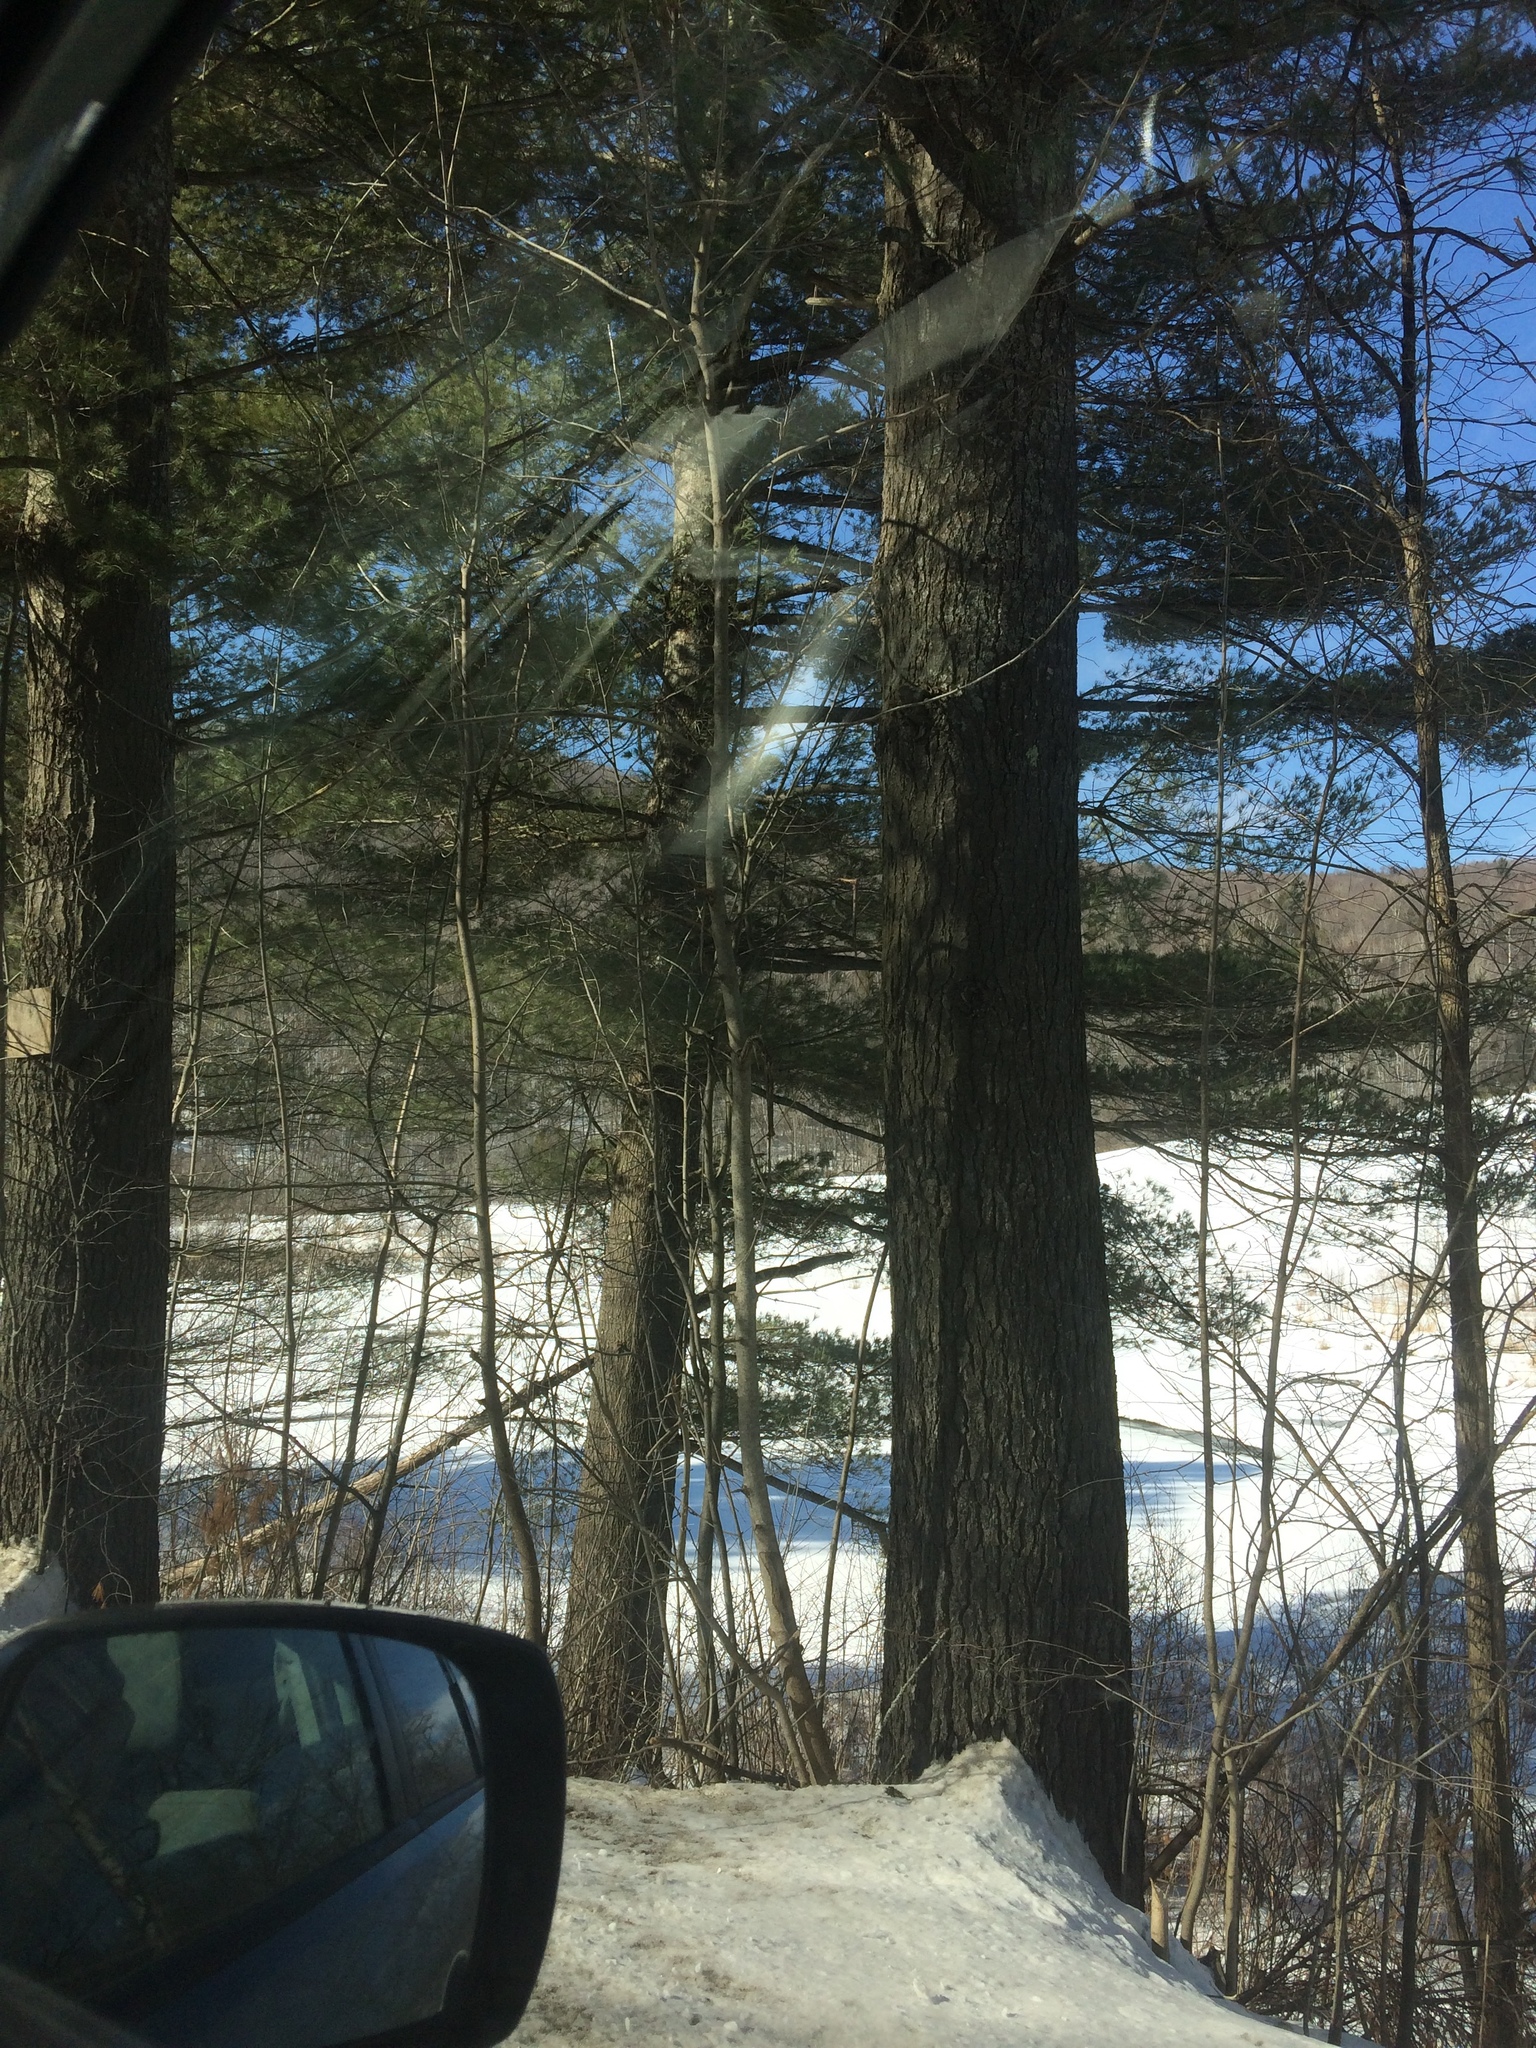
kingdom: Plantae
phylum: Tracheophyta
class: Pinopsida
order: Pinales
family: Pinaceae
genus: Pinus
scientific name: Pinus strobus
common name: Weymouth pine
